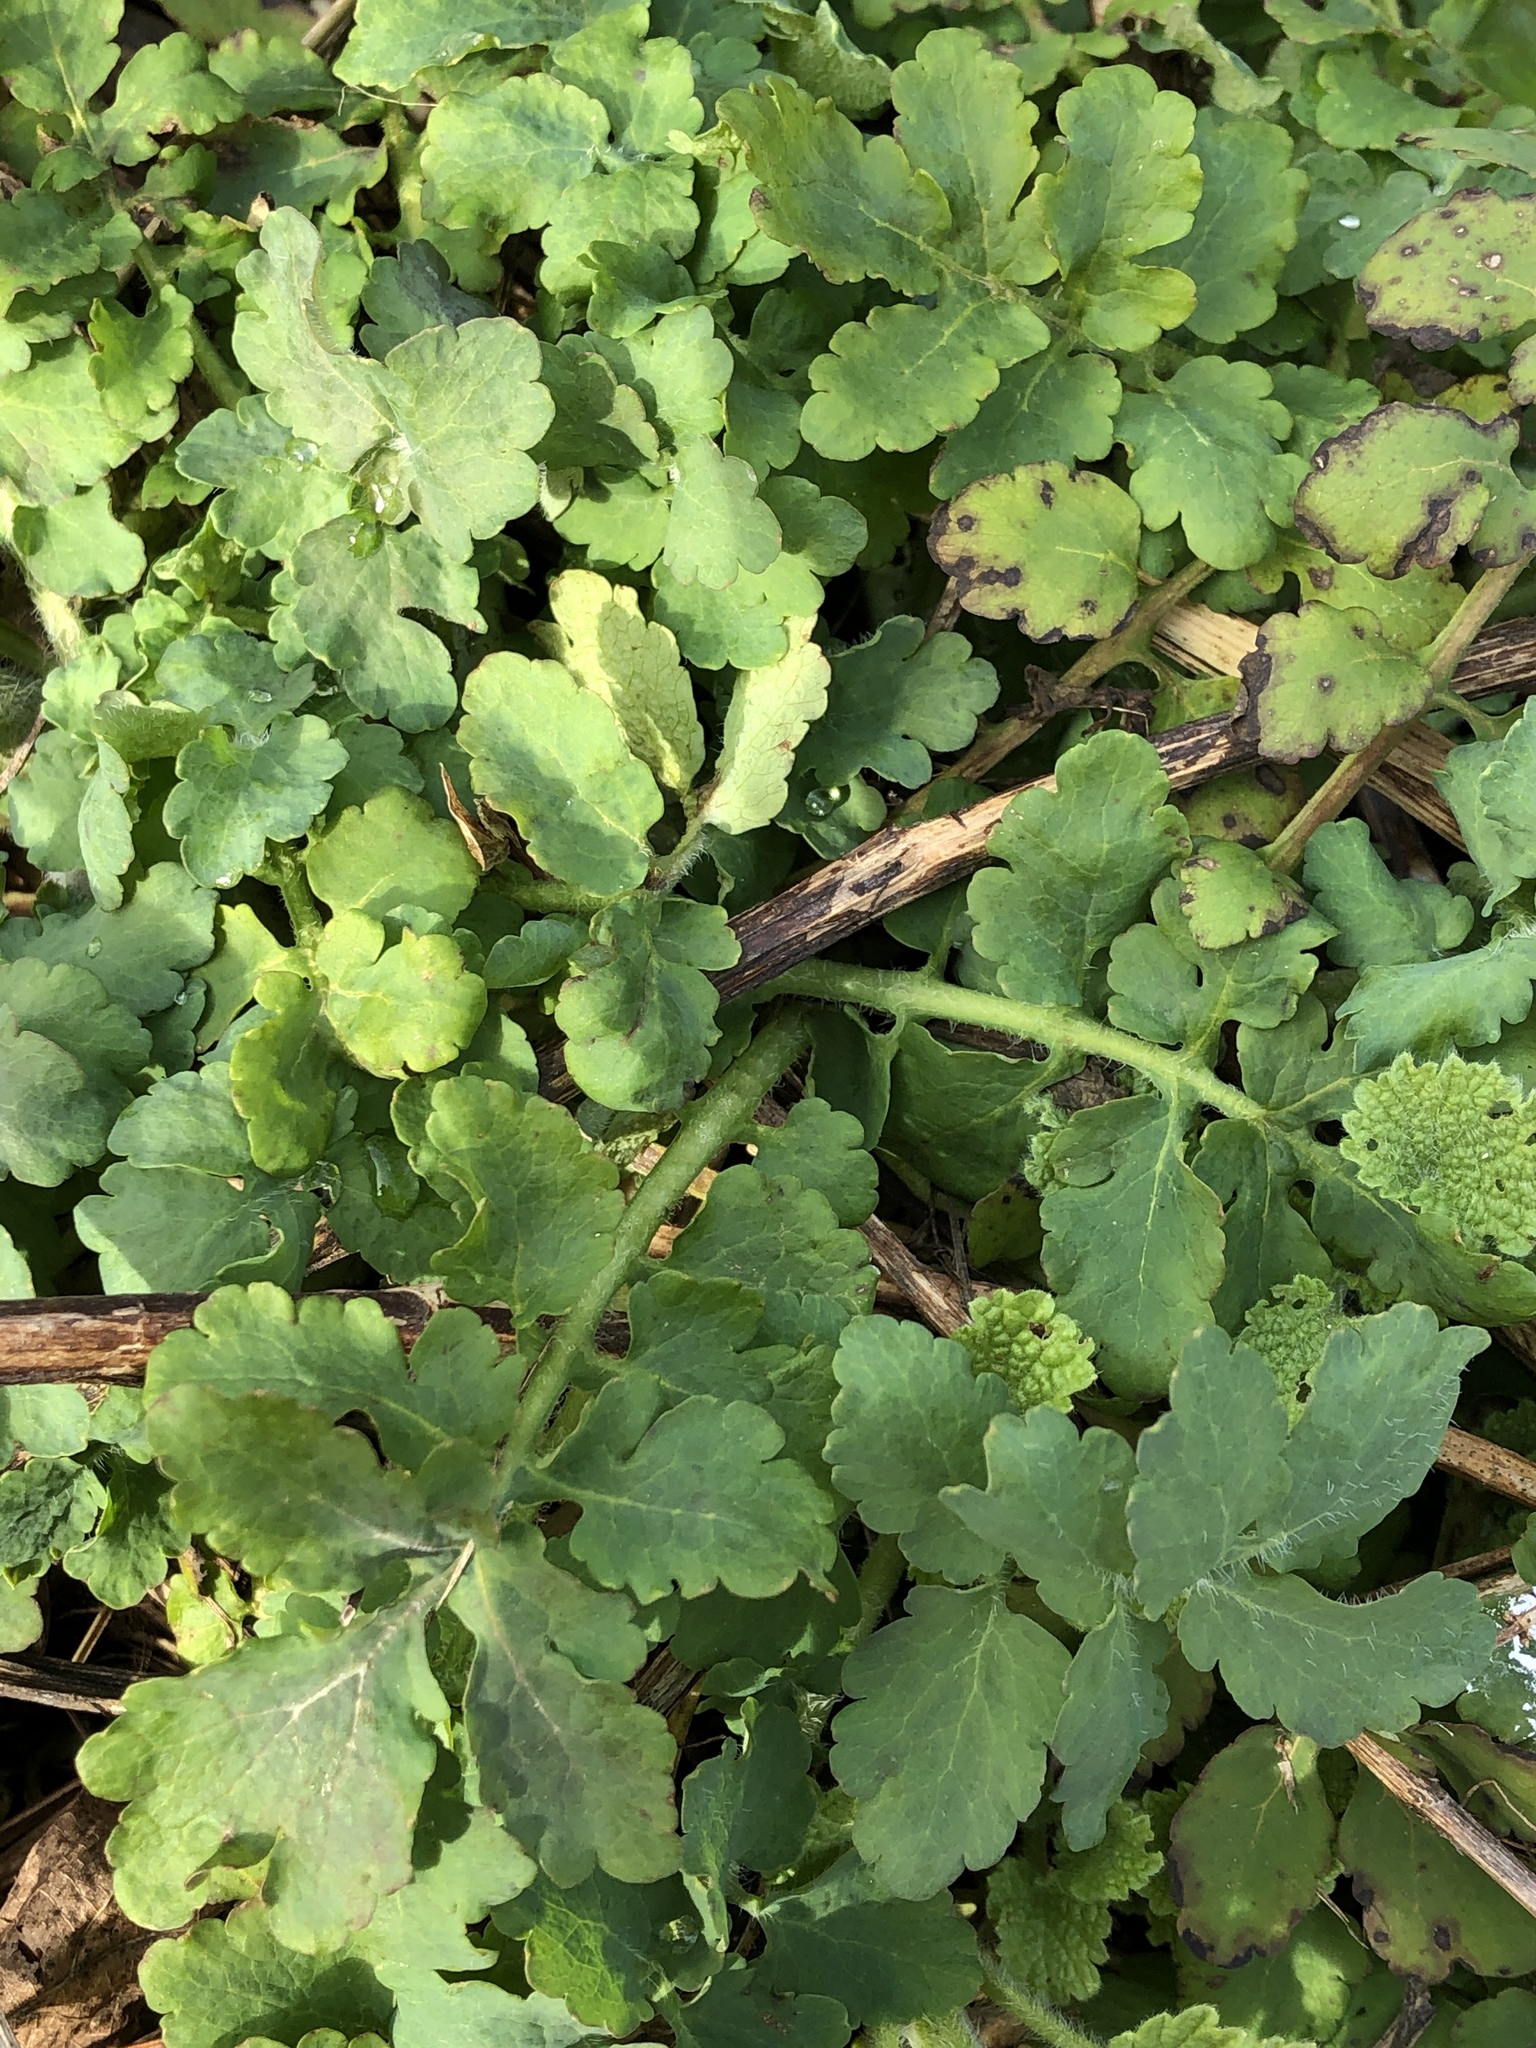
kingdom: Plantae
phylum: Tracheophyta
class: Magnoliopsida
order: Ranunculales
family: Papaveraceae
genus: Chelidonium
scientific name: Chelidonium majus
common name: Greater celandine
